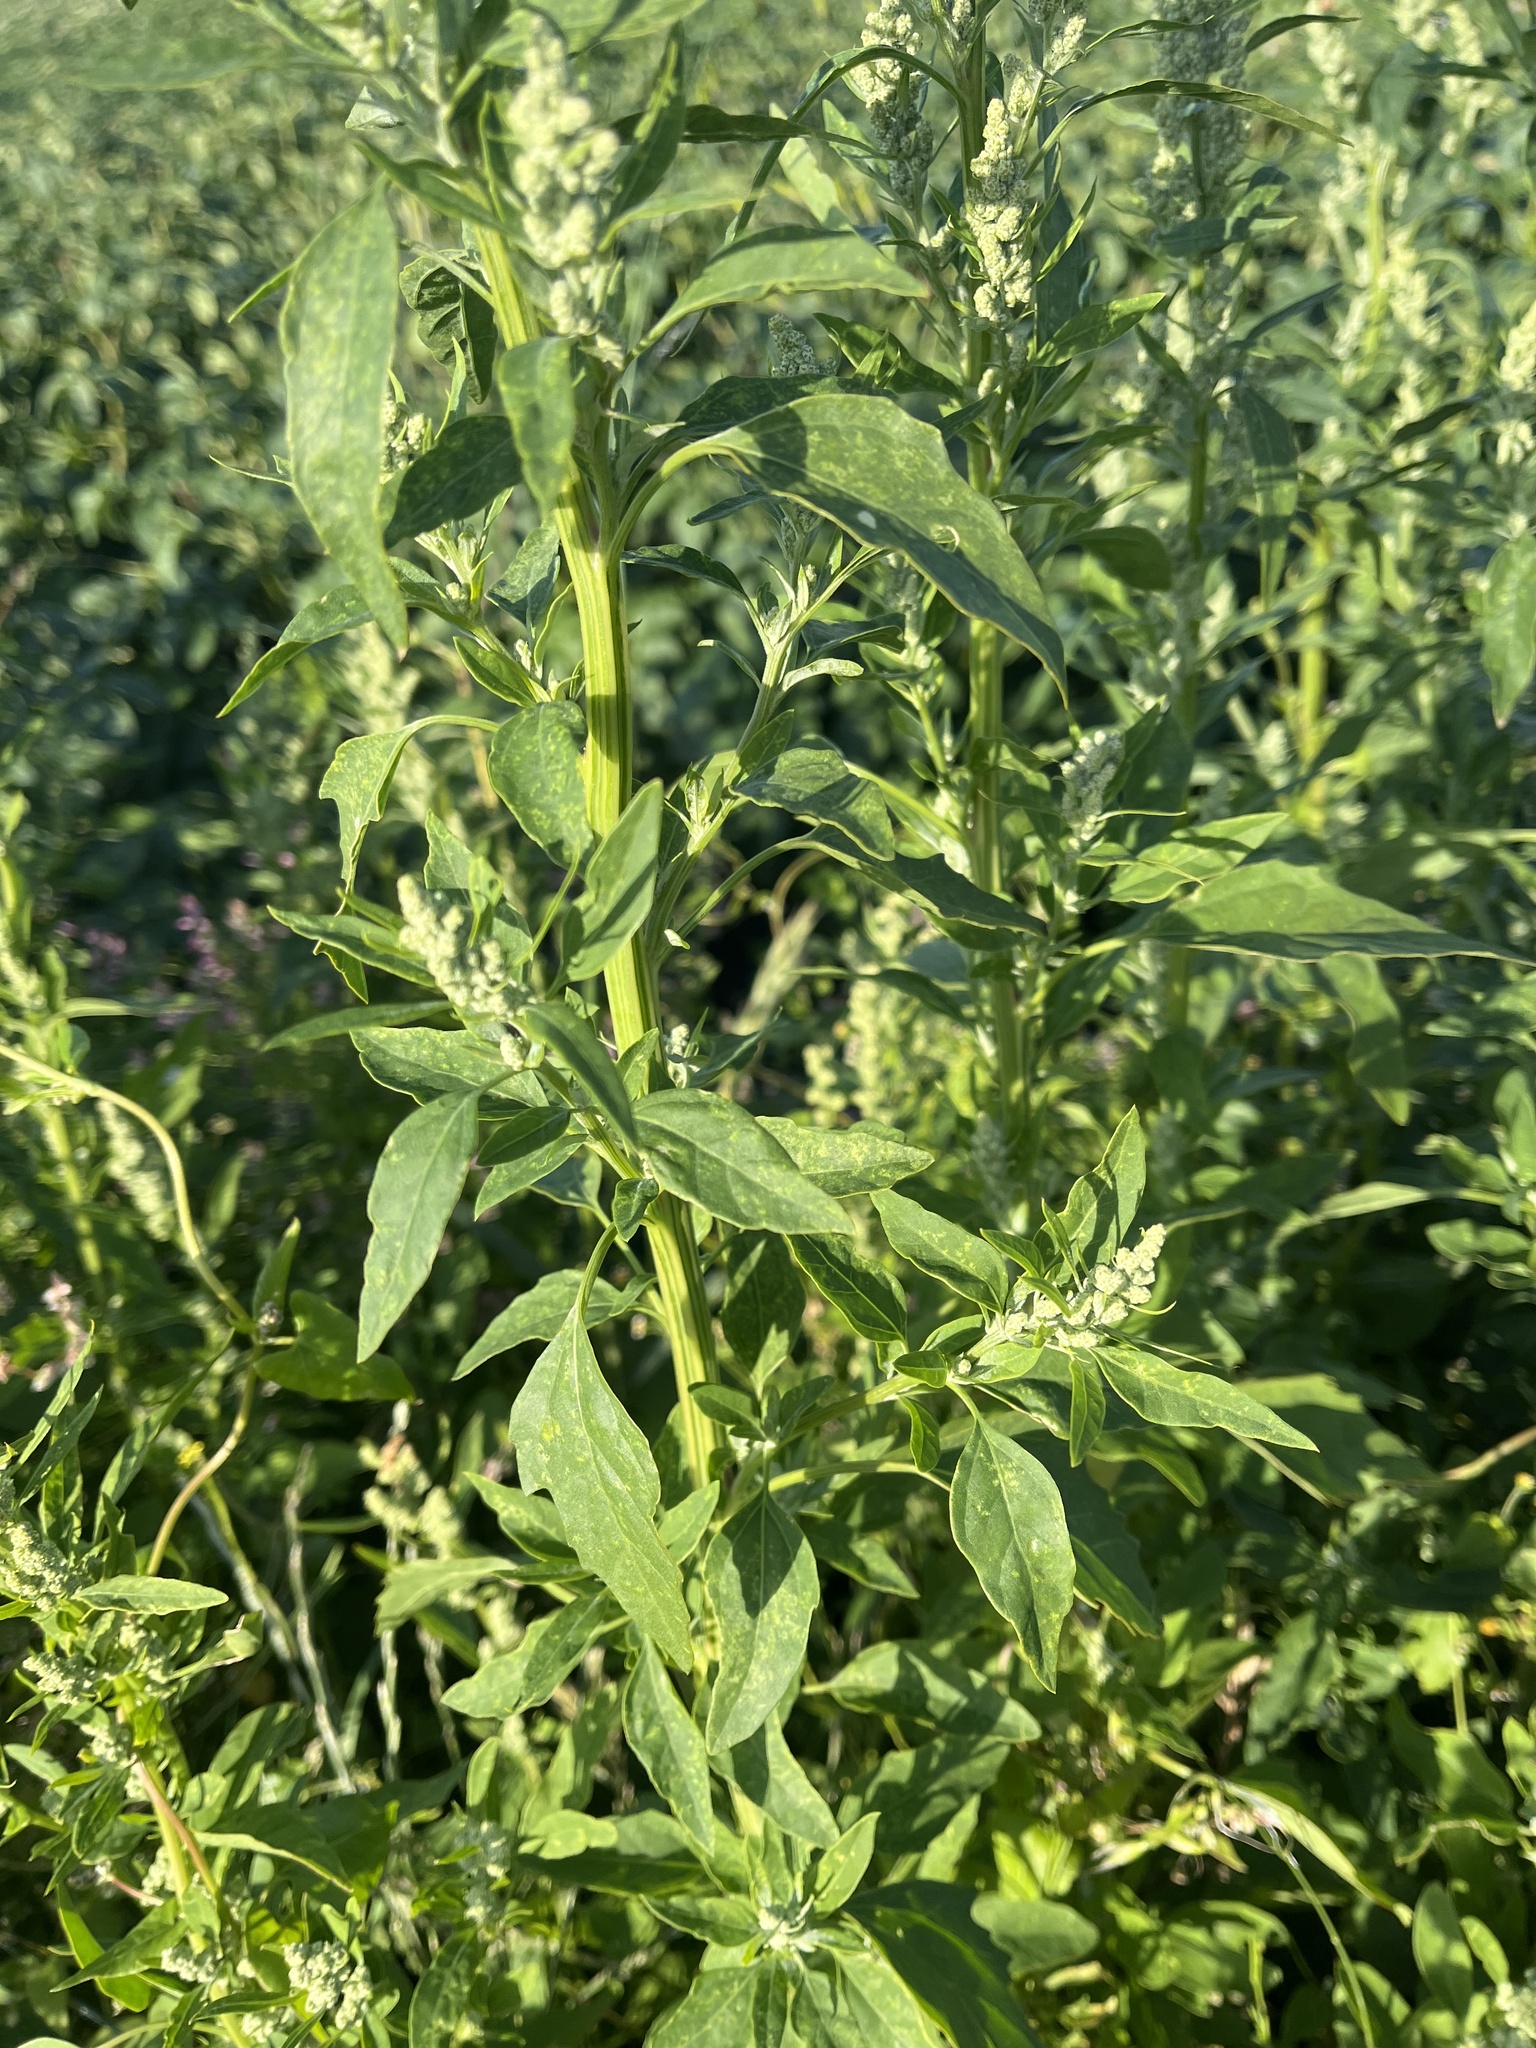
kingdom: Plantae
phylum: Tracheophyta
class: Magnoliopsida
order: Caryophyllales
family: Amaranthaceae
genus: Chenopodium
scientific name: Chenopodium album
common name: Fat-hen
